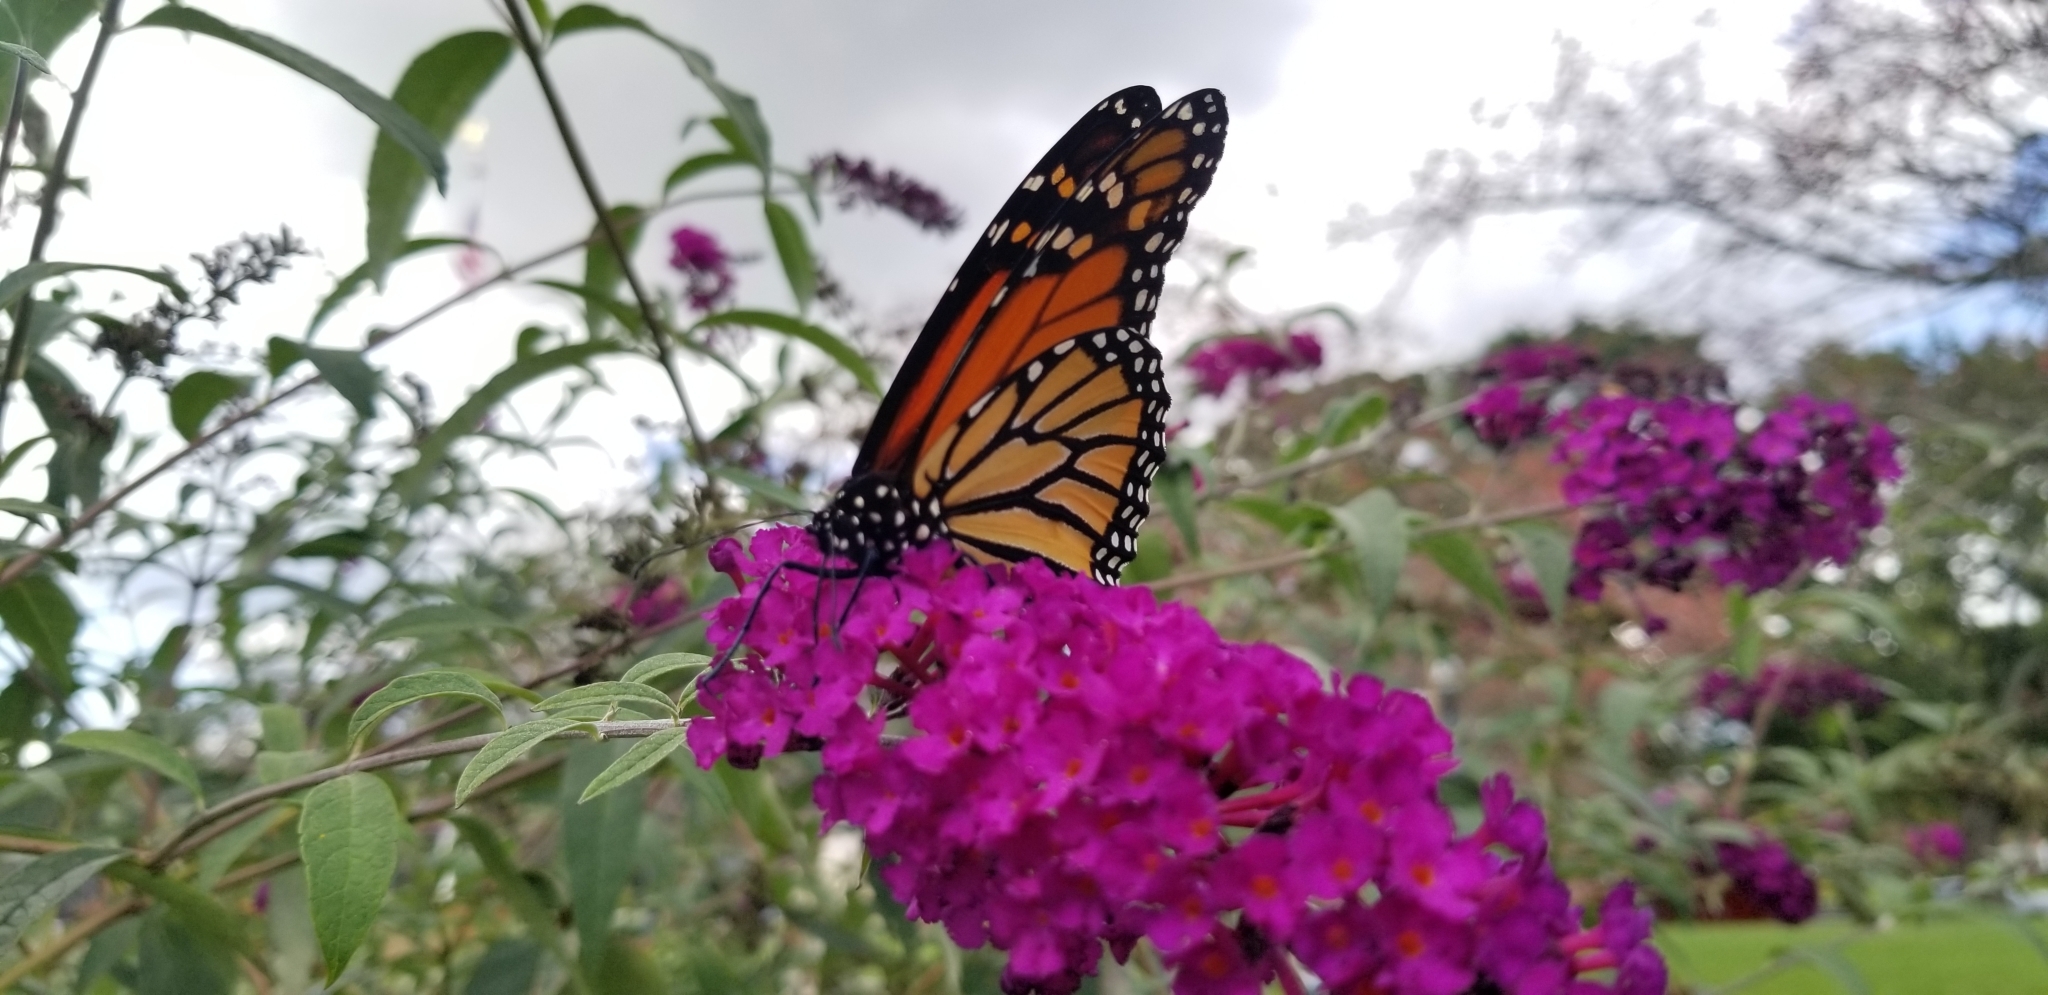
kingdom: Animalia
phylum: Arthropoda
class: Insecta
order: Lepidoptera
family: Nymphalidae
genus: Danaus
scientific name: Danaus plexippus
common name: Monarch
